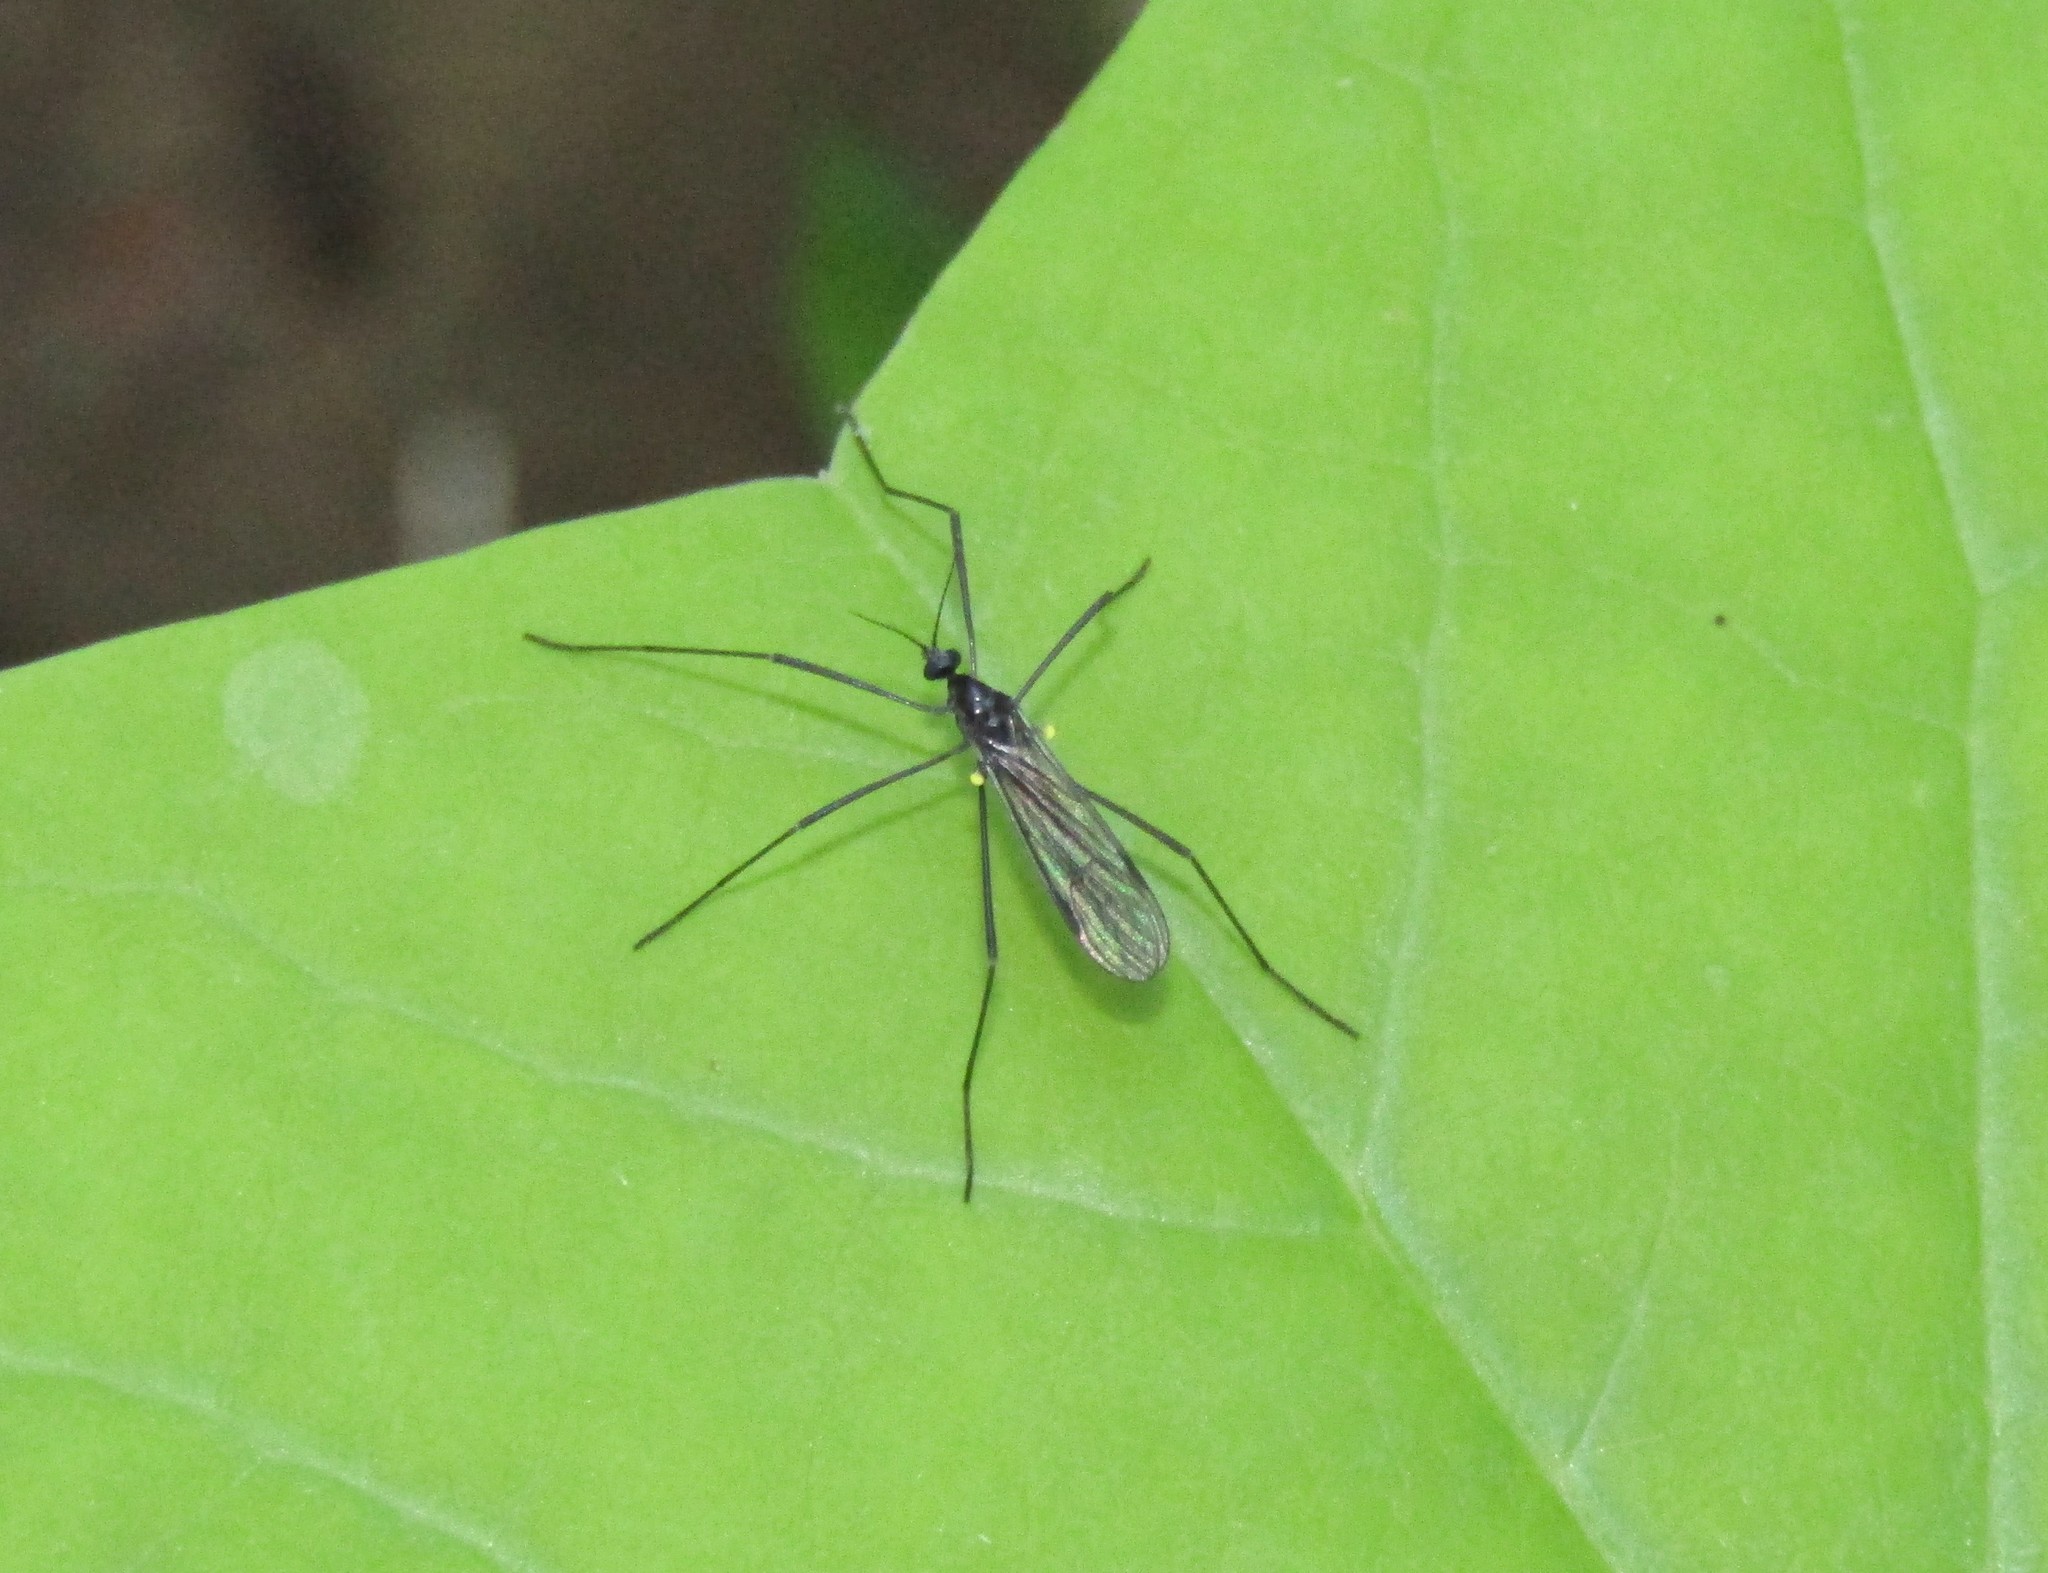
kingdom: Animalia
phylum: Arthropoda
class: Insecta
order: Diptera
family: Limoniidae
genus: Gnophomyia
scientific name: Gnophomyia tristissima
